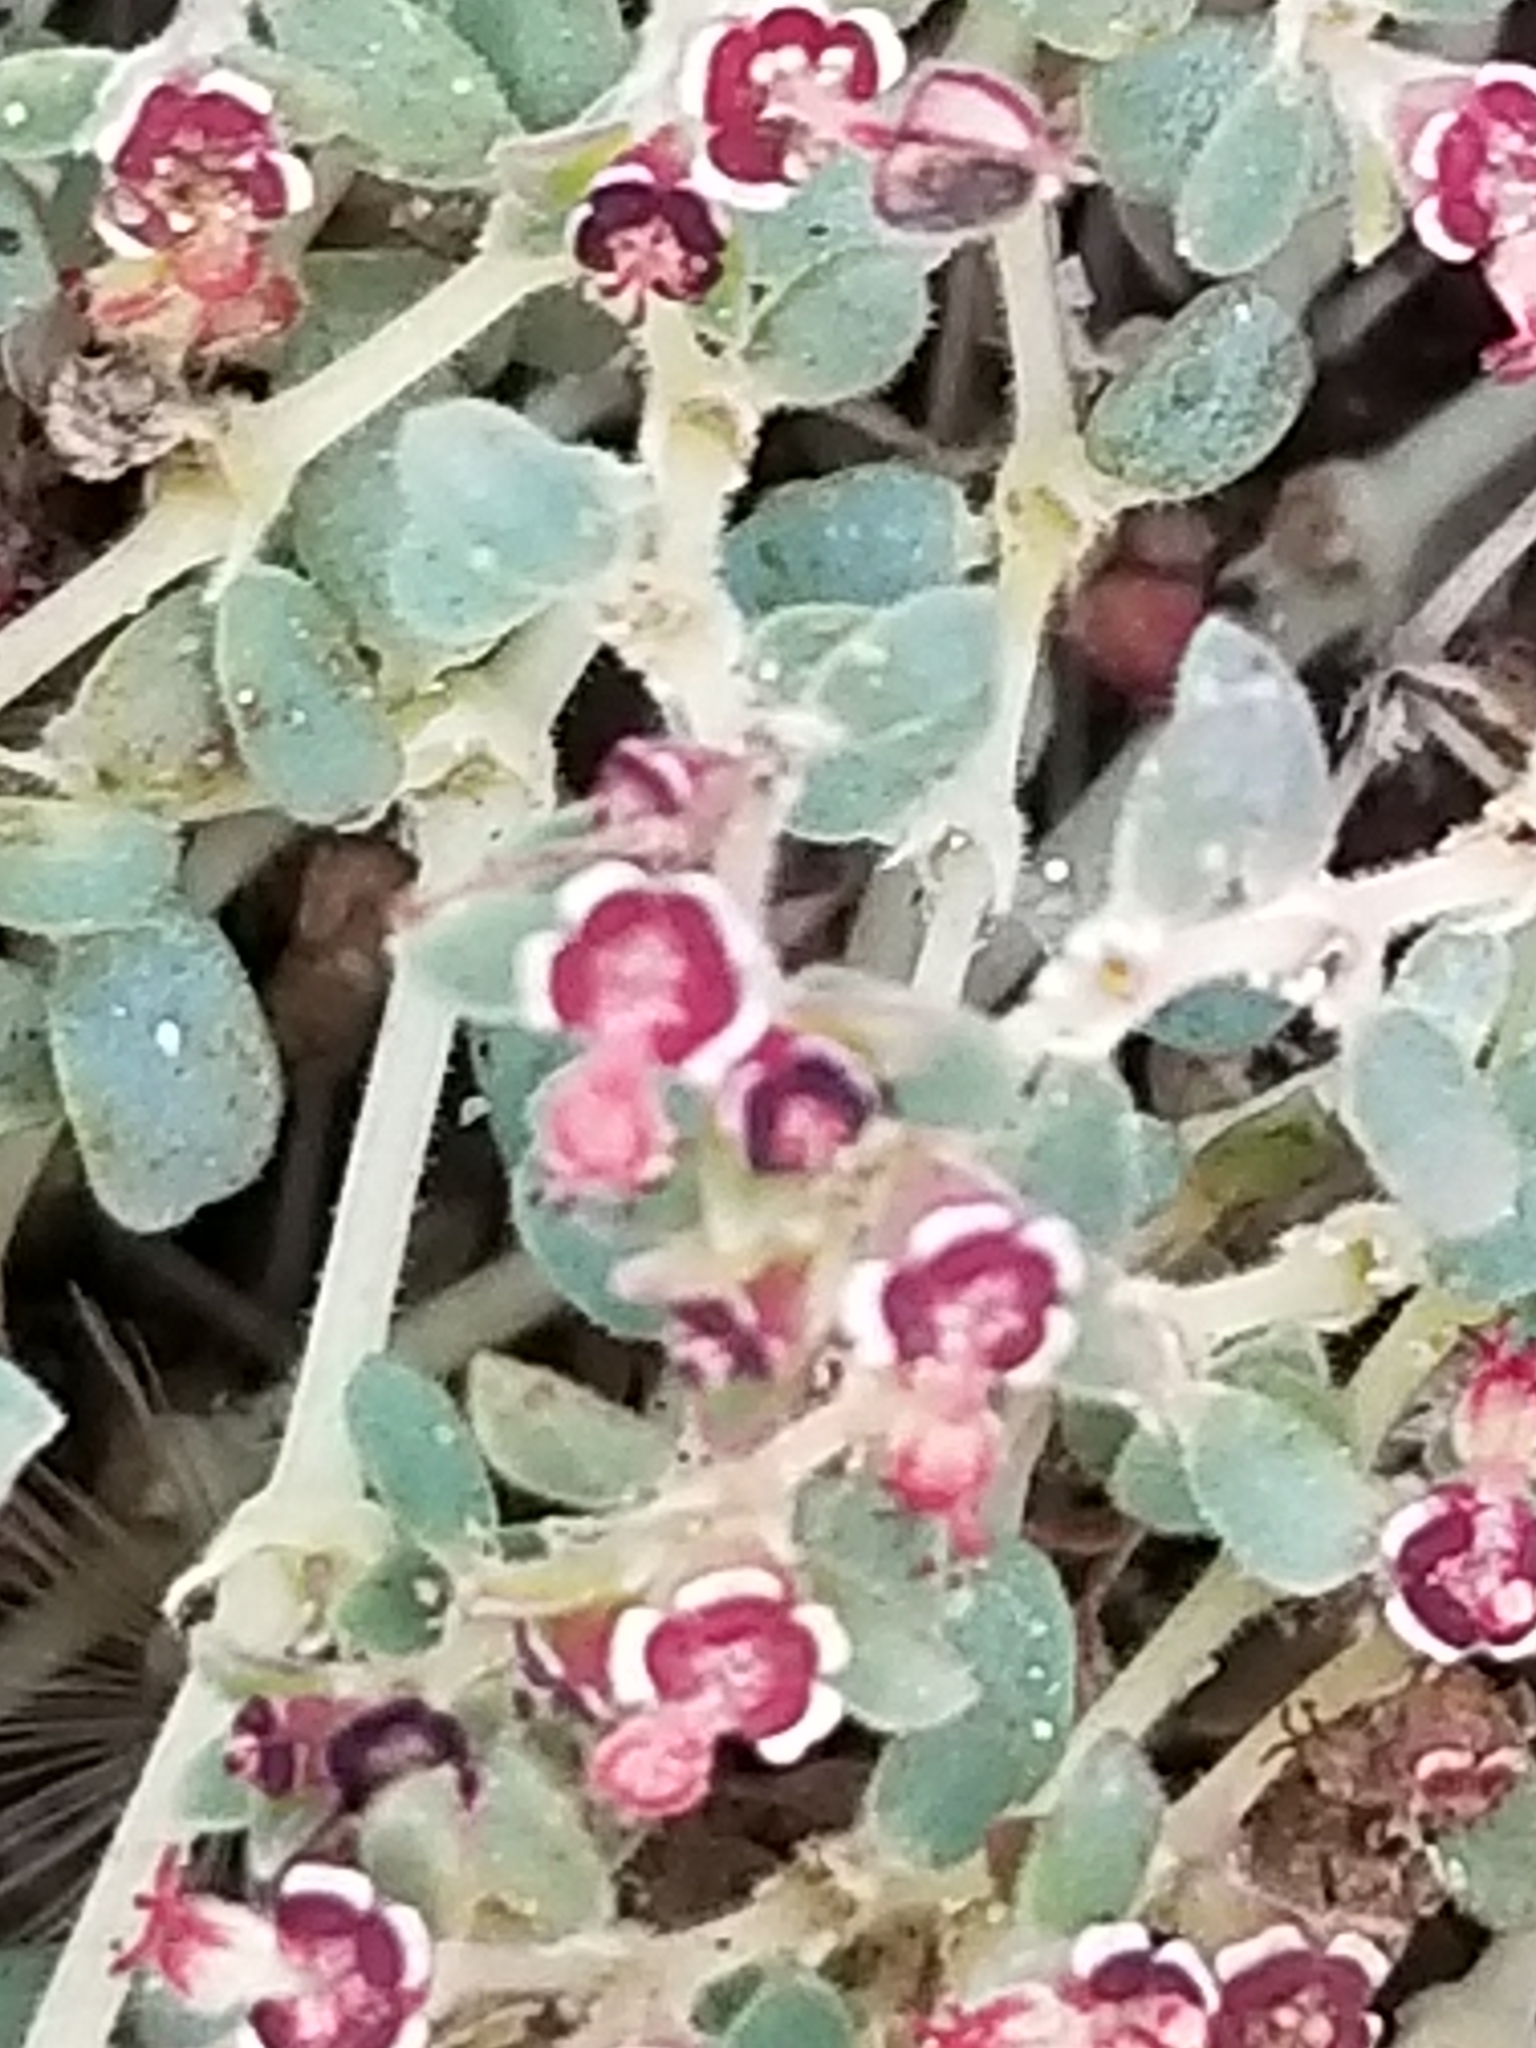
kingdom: Plantae
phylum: Tracheophyta
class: Magnoliopsida
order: Malpighiales
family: Euphorbiaceae
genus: Euphorbia
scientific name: Euphorbia polycarpa
